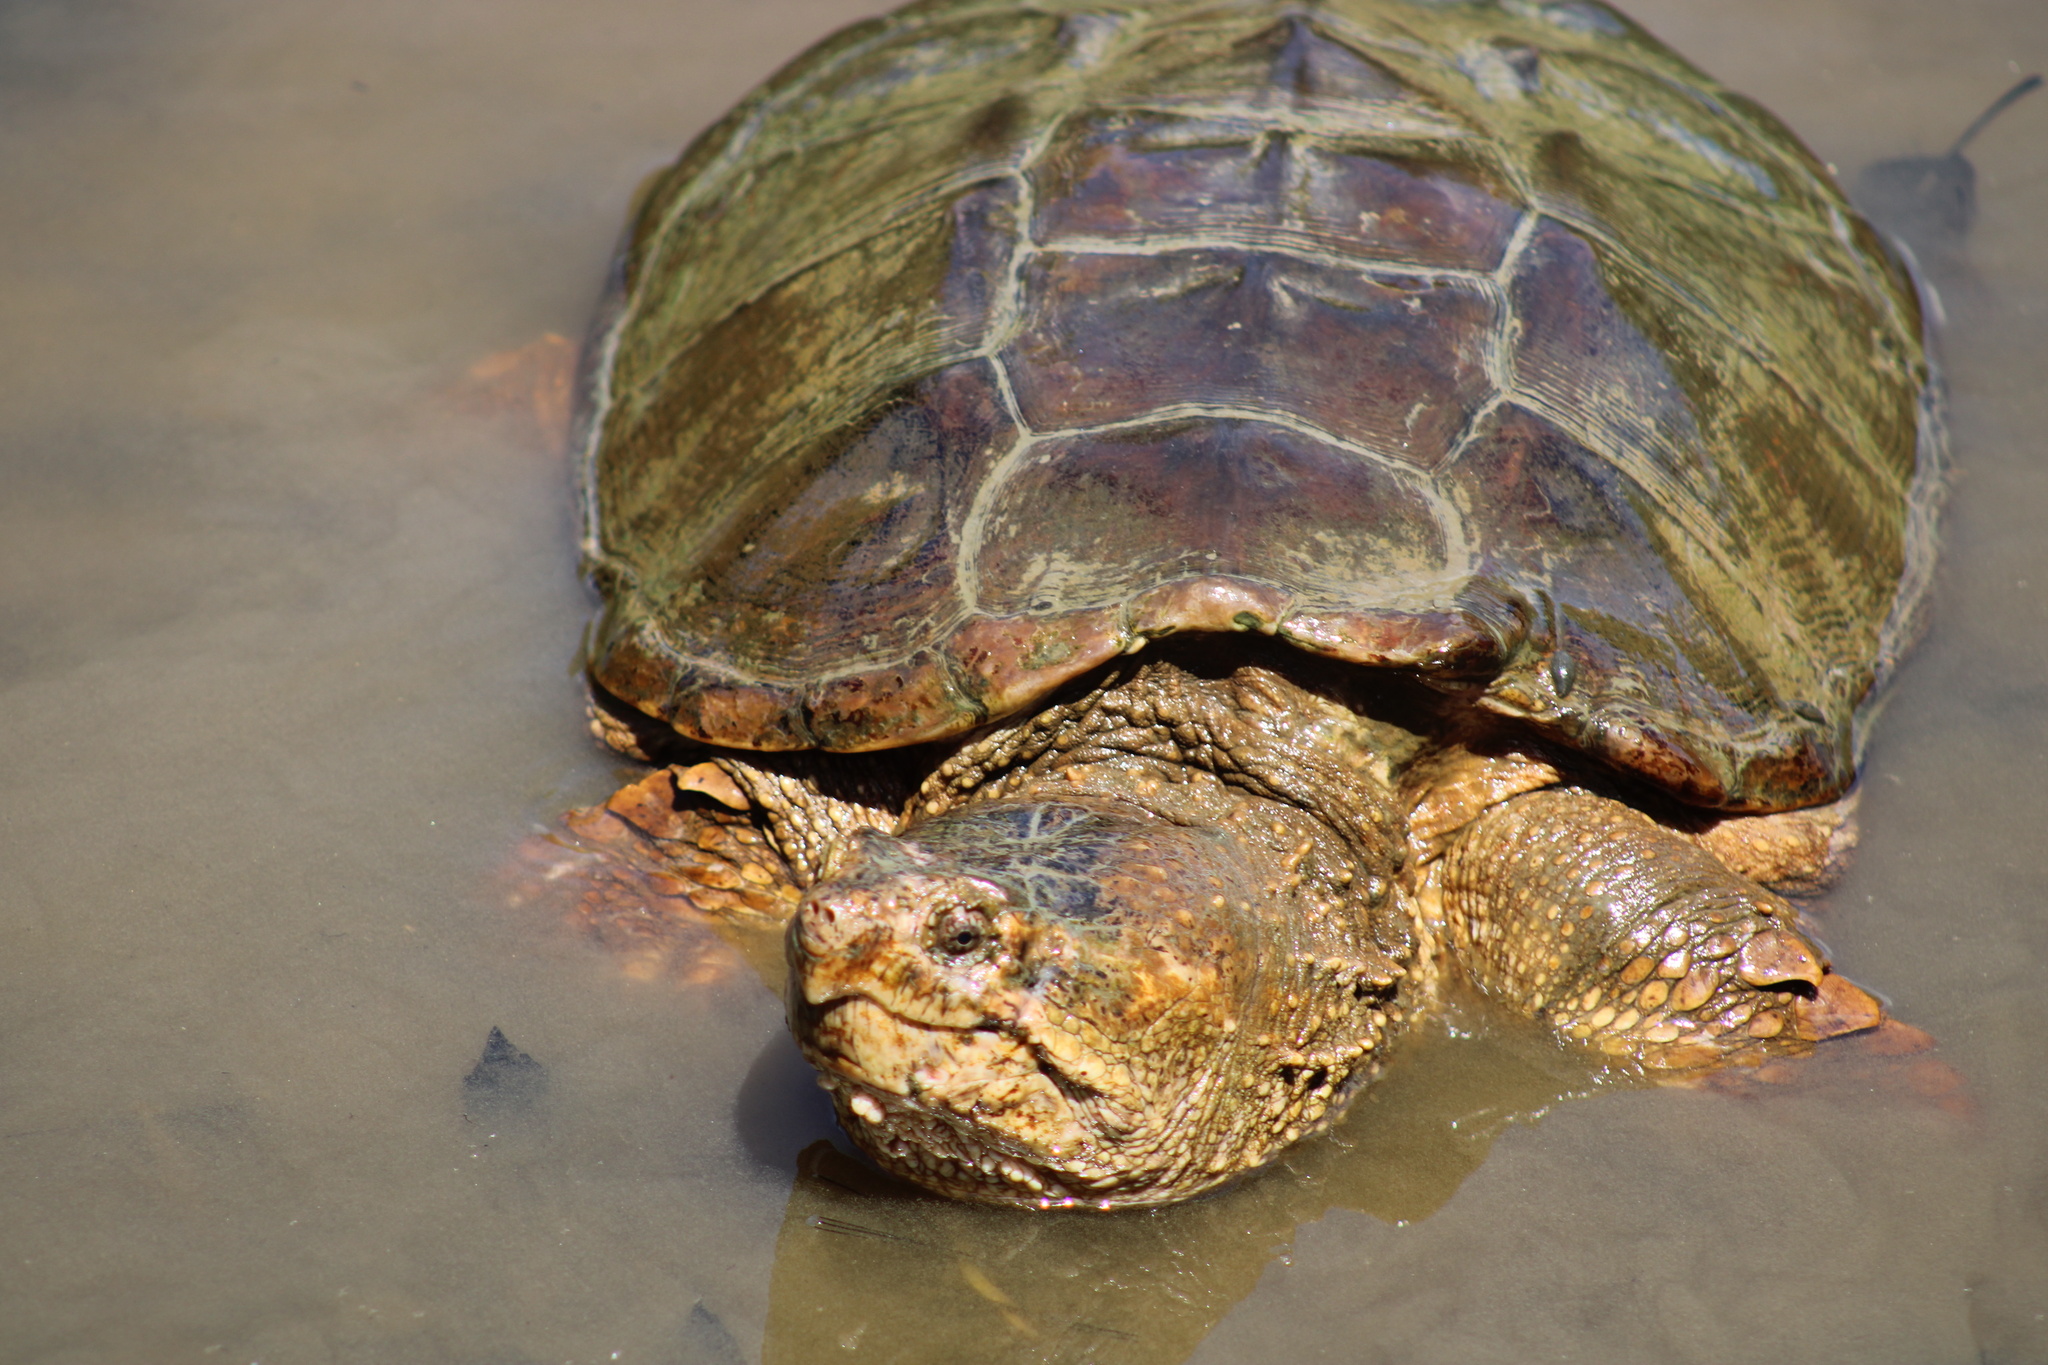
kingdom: Animalia
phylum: Chordata
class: Testudines
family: Chelydridae
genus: Chelydra
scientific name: Chelydra serpentina
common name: Common snapping turtle
